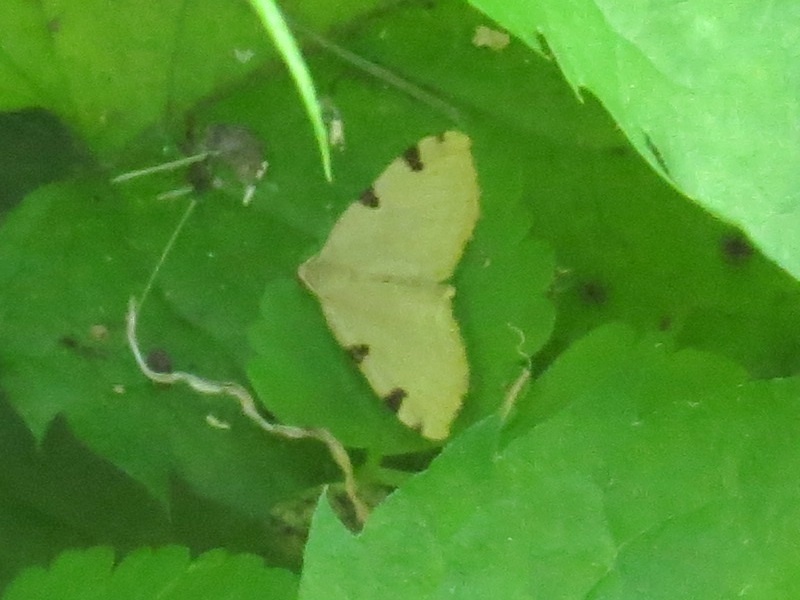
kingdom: Animalia
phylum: Arthropoda
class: Insecta
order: Lepidoptera
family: Geometridae
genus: Heterophleps
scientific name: Heterophleps triguttaria
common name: Three-spotted fillip
